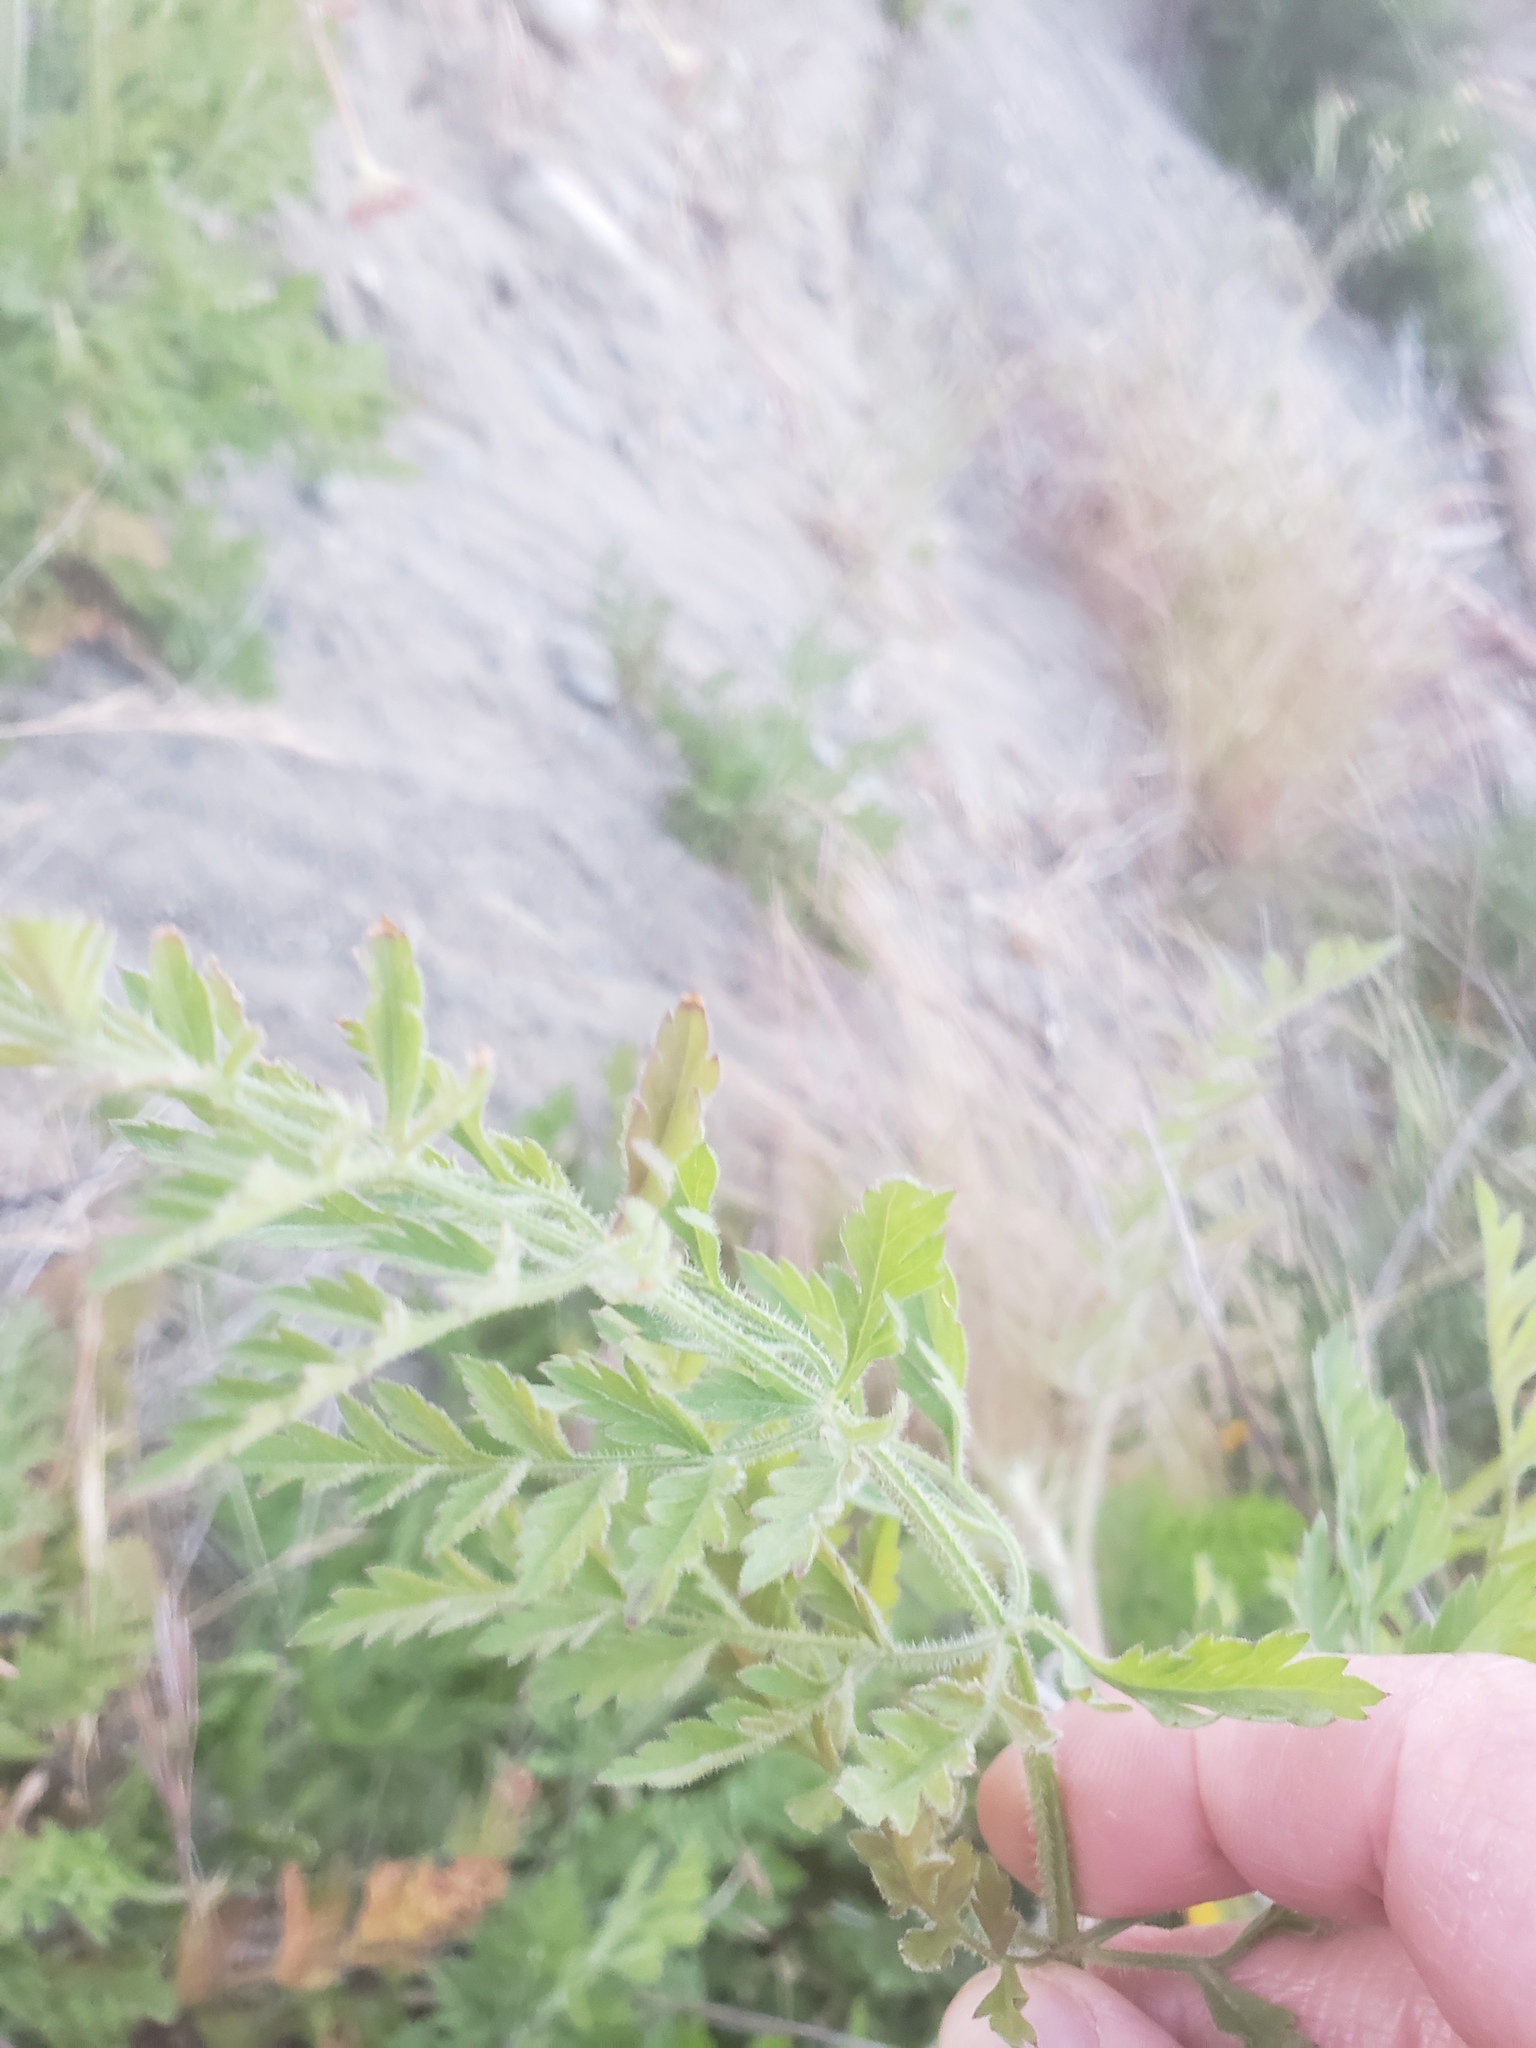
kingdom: Plantae
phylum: Tracheophyta
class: Magnoliopsida
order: Apiales
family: Apiaceae
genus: Daucus
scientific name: Daucus carota
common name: Wild carrot
